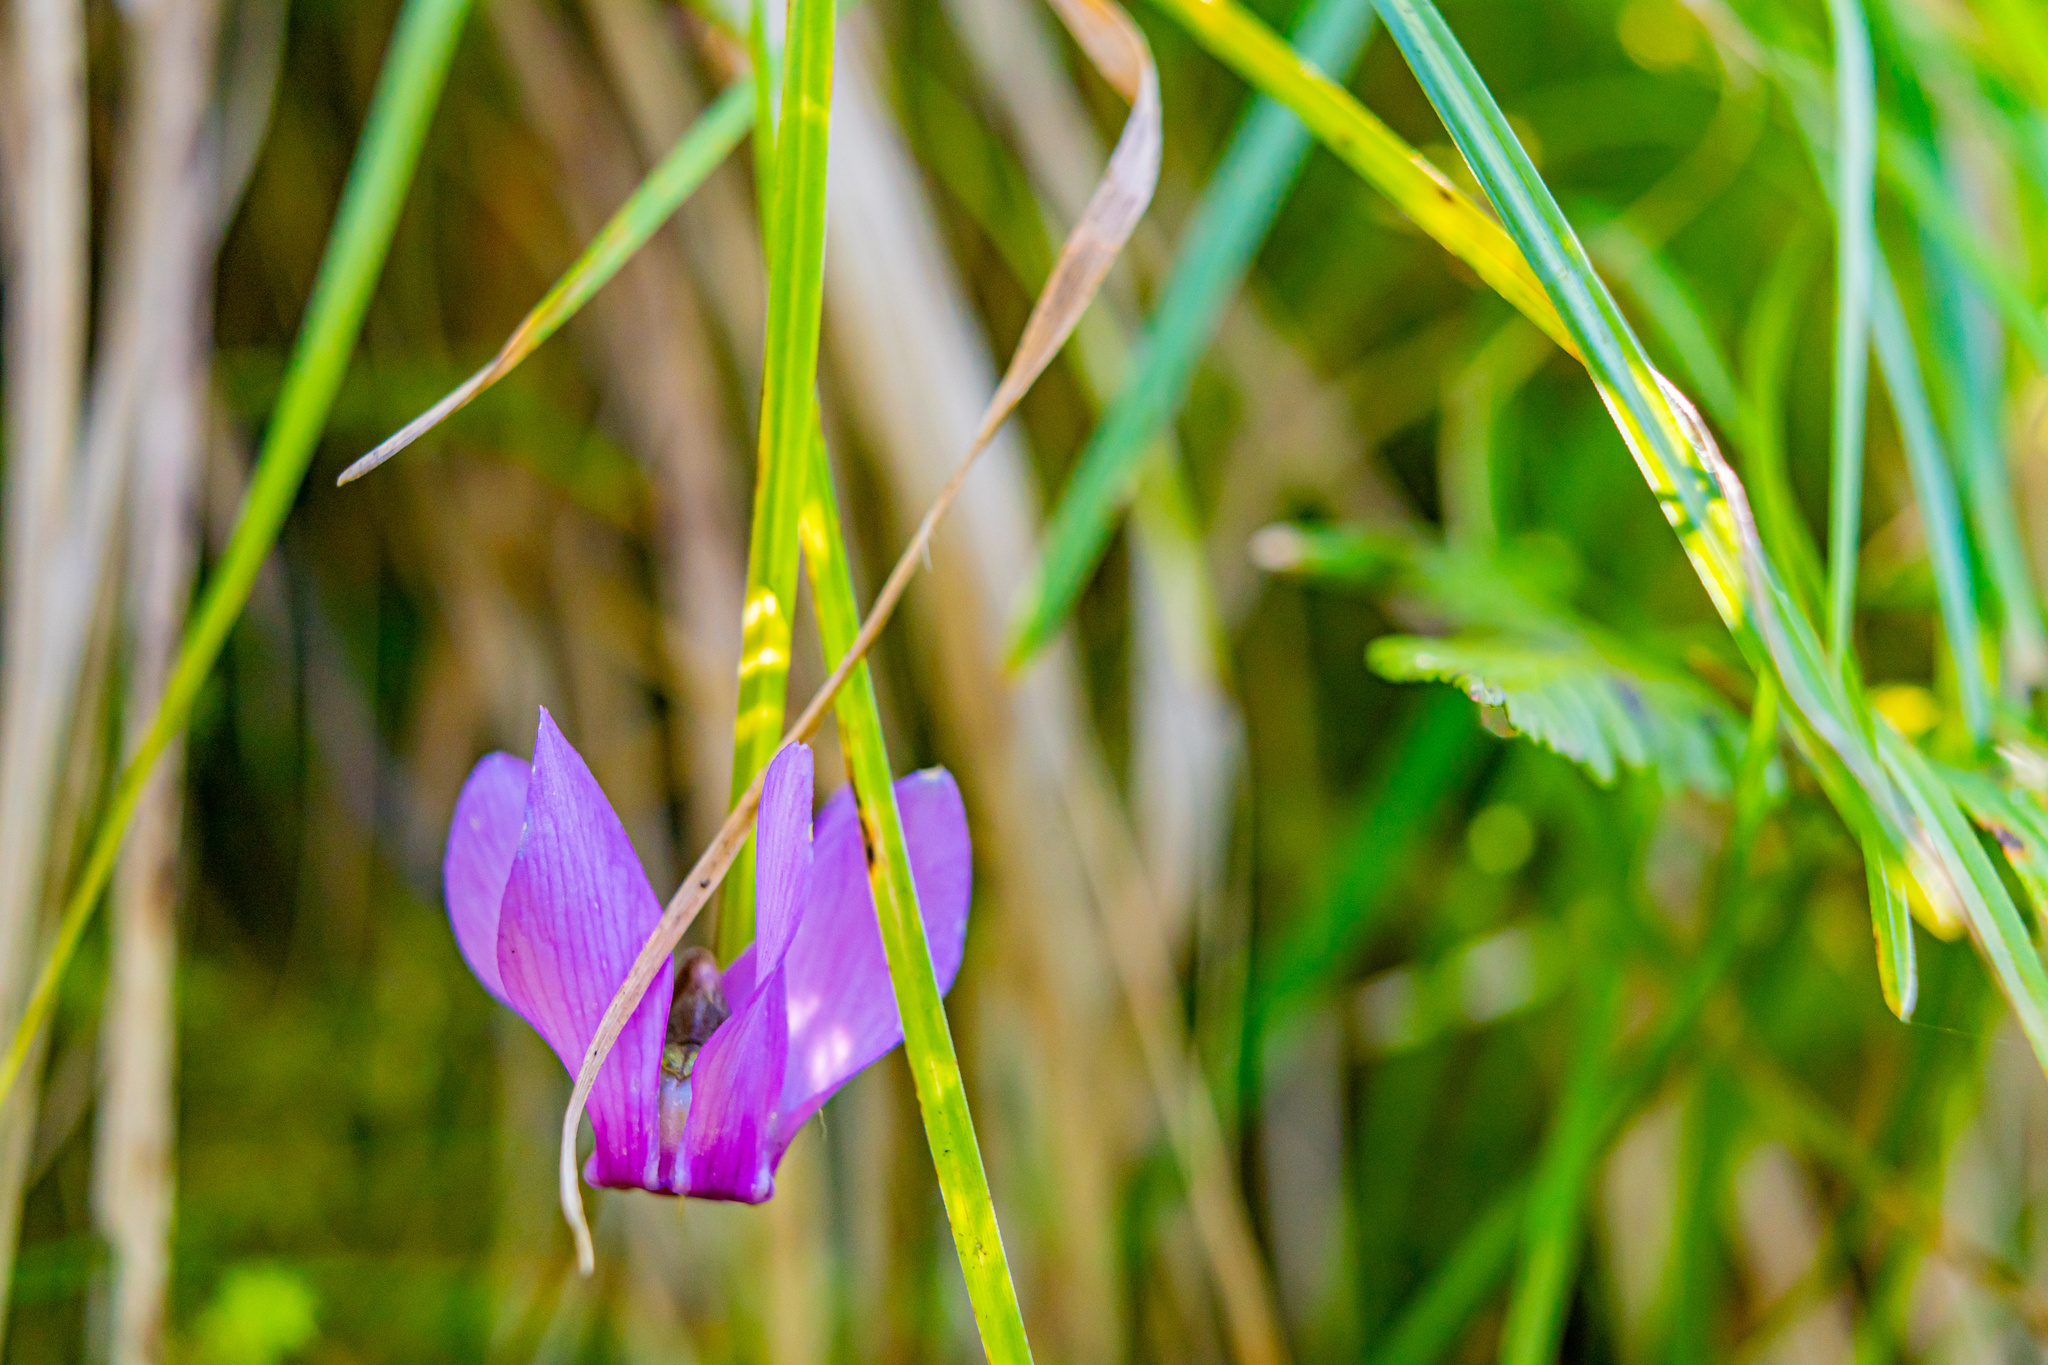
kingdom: Plantae
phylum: Tracheophyta
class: Magnoliopsida
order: Ericales
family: Primulaceae
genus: Cyclamen
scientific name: Cyclamen purpurascens
